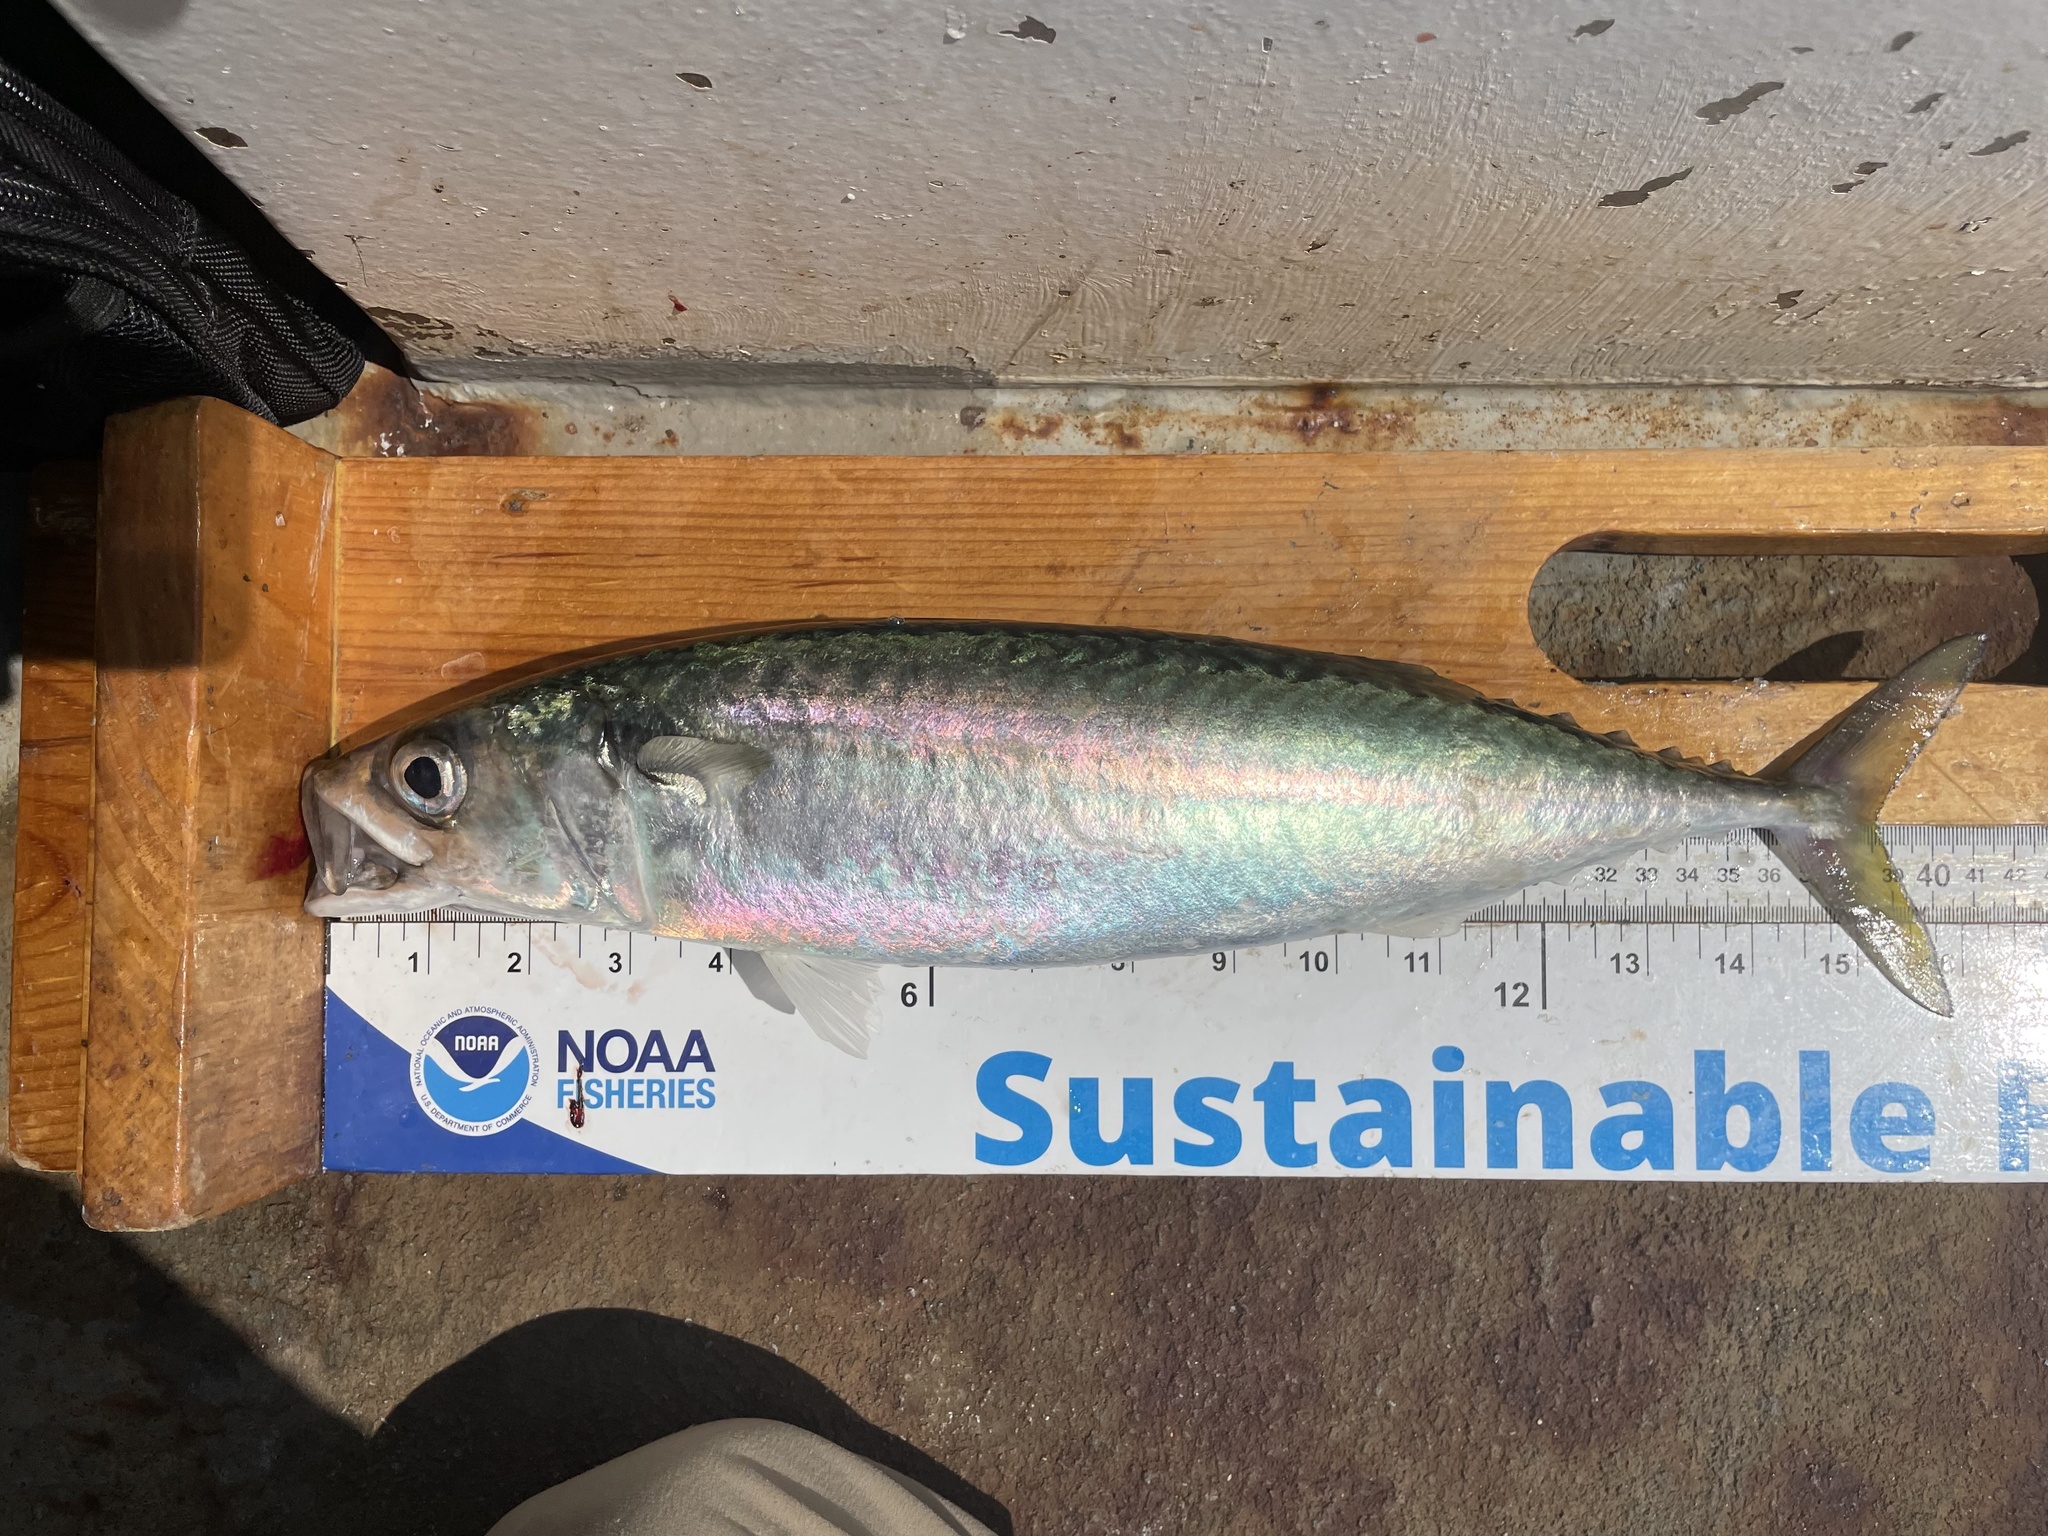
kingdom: Animalia
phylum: Chordata
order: Perciformes
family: Scombridae
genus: Scomber
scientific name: Scomber colias
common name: Atlantic chub mackerel
